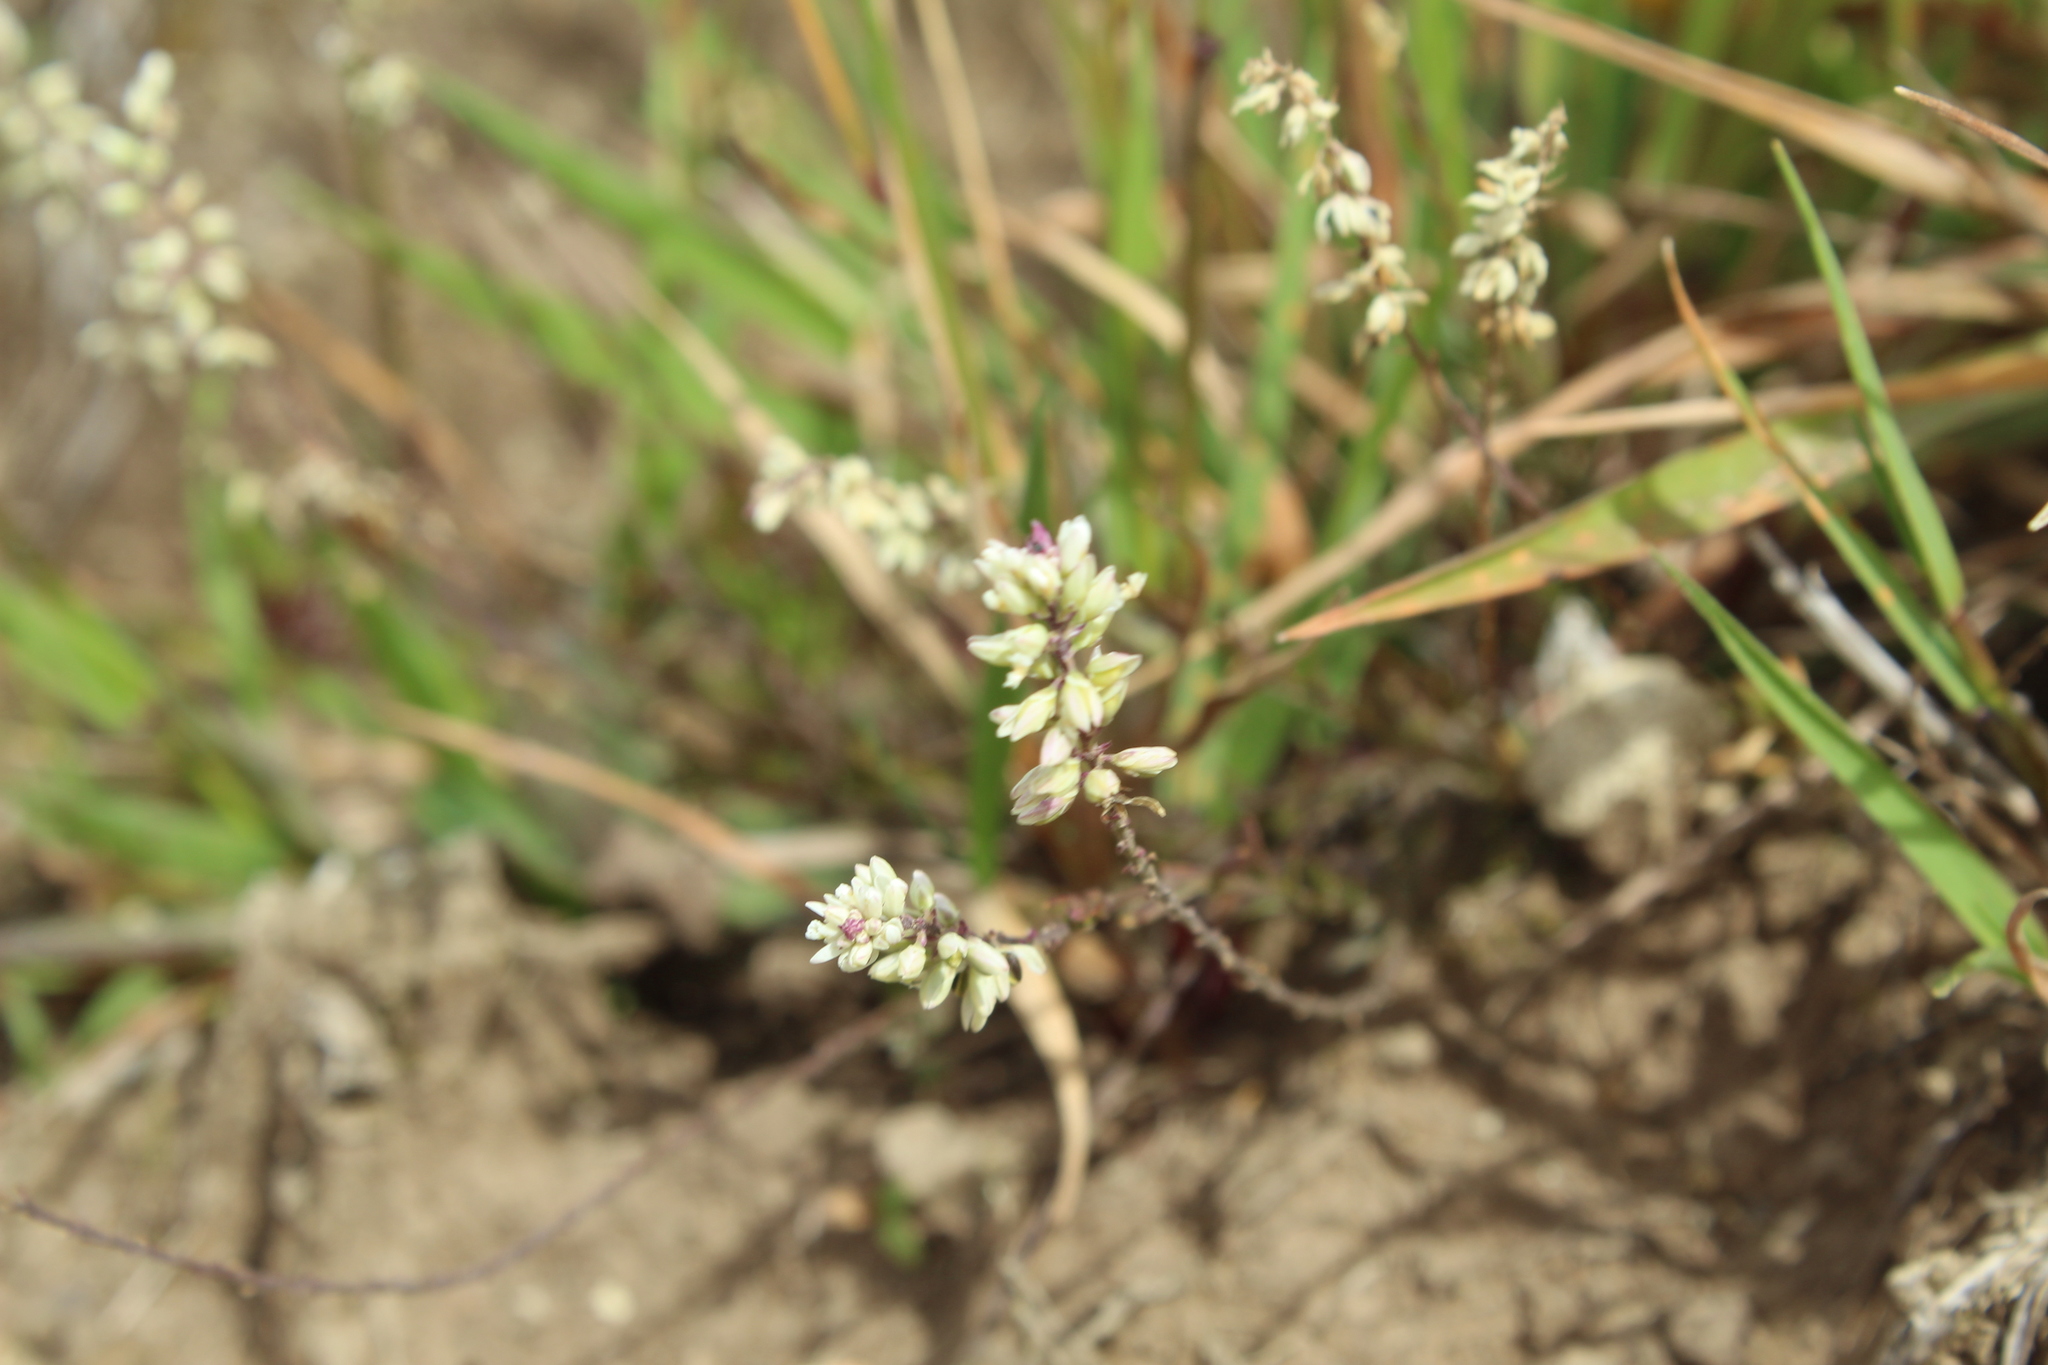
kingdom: Plantae
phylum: Tracheophyta
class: Magnoliopsida
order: Fabales
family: Polygalaceae
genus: Polygala
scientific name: Polygala paniculata
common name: Orosne
